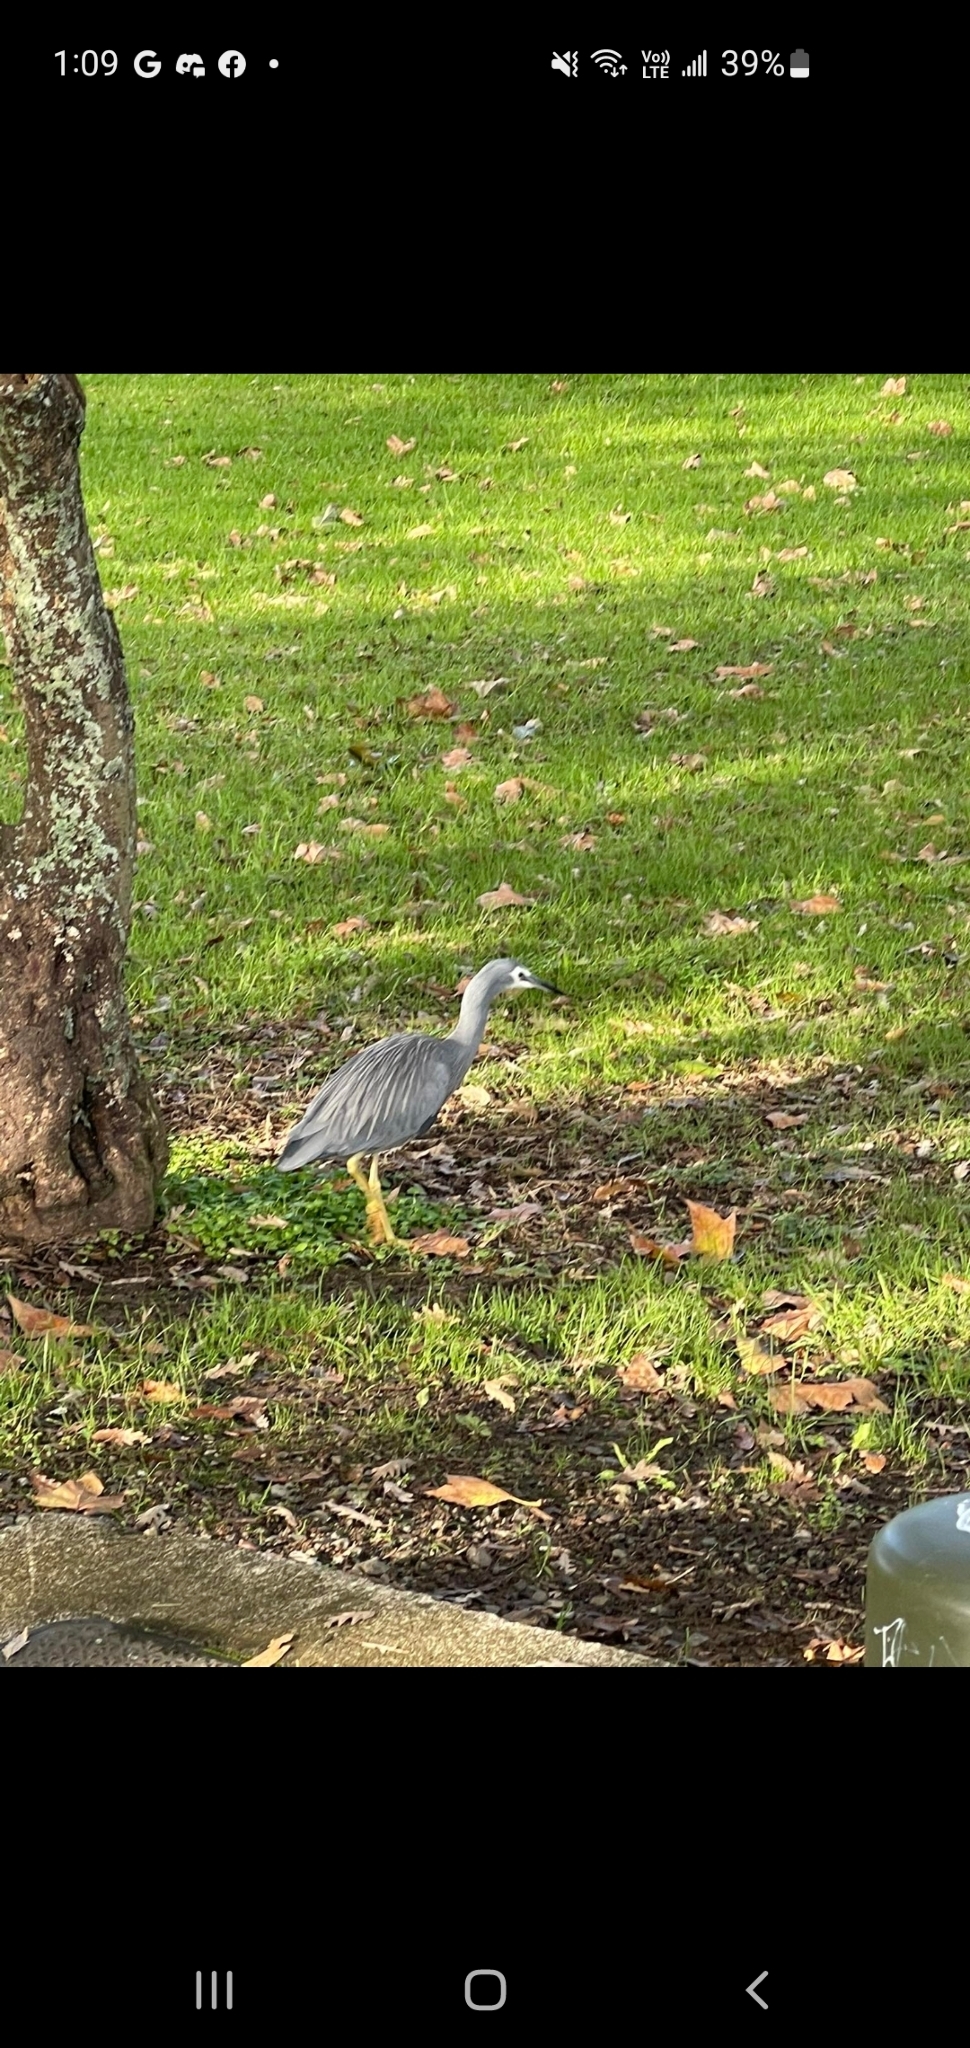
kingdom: Animalia
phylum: Chordata
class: Aves
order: Pelecaniformes
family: Ardeidae
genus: Egretta
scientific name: Egretta novaehollandiae
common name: White-faced heron
